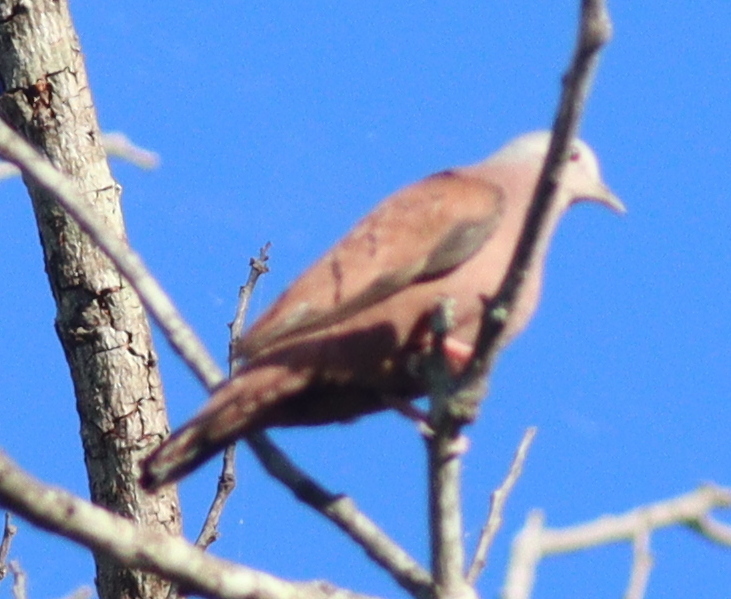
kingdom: Animalia
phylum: Chordata
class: Aves
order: Columbiformes
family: Columbidae
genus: Columbina
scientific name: Columbina talpacoti
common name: Ruddy ground dove
